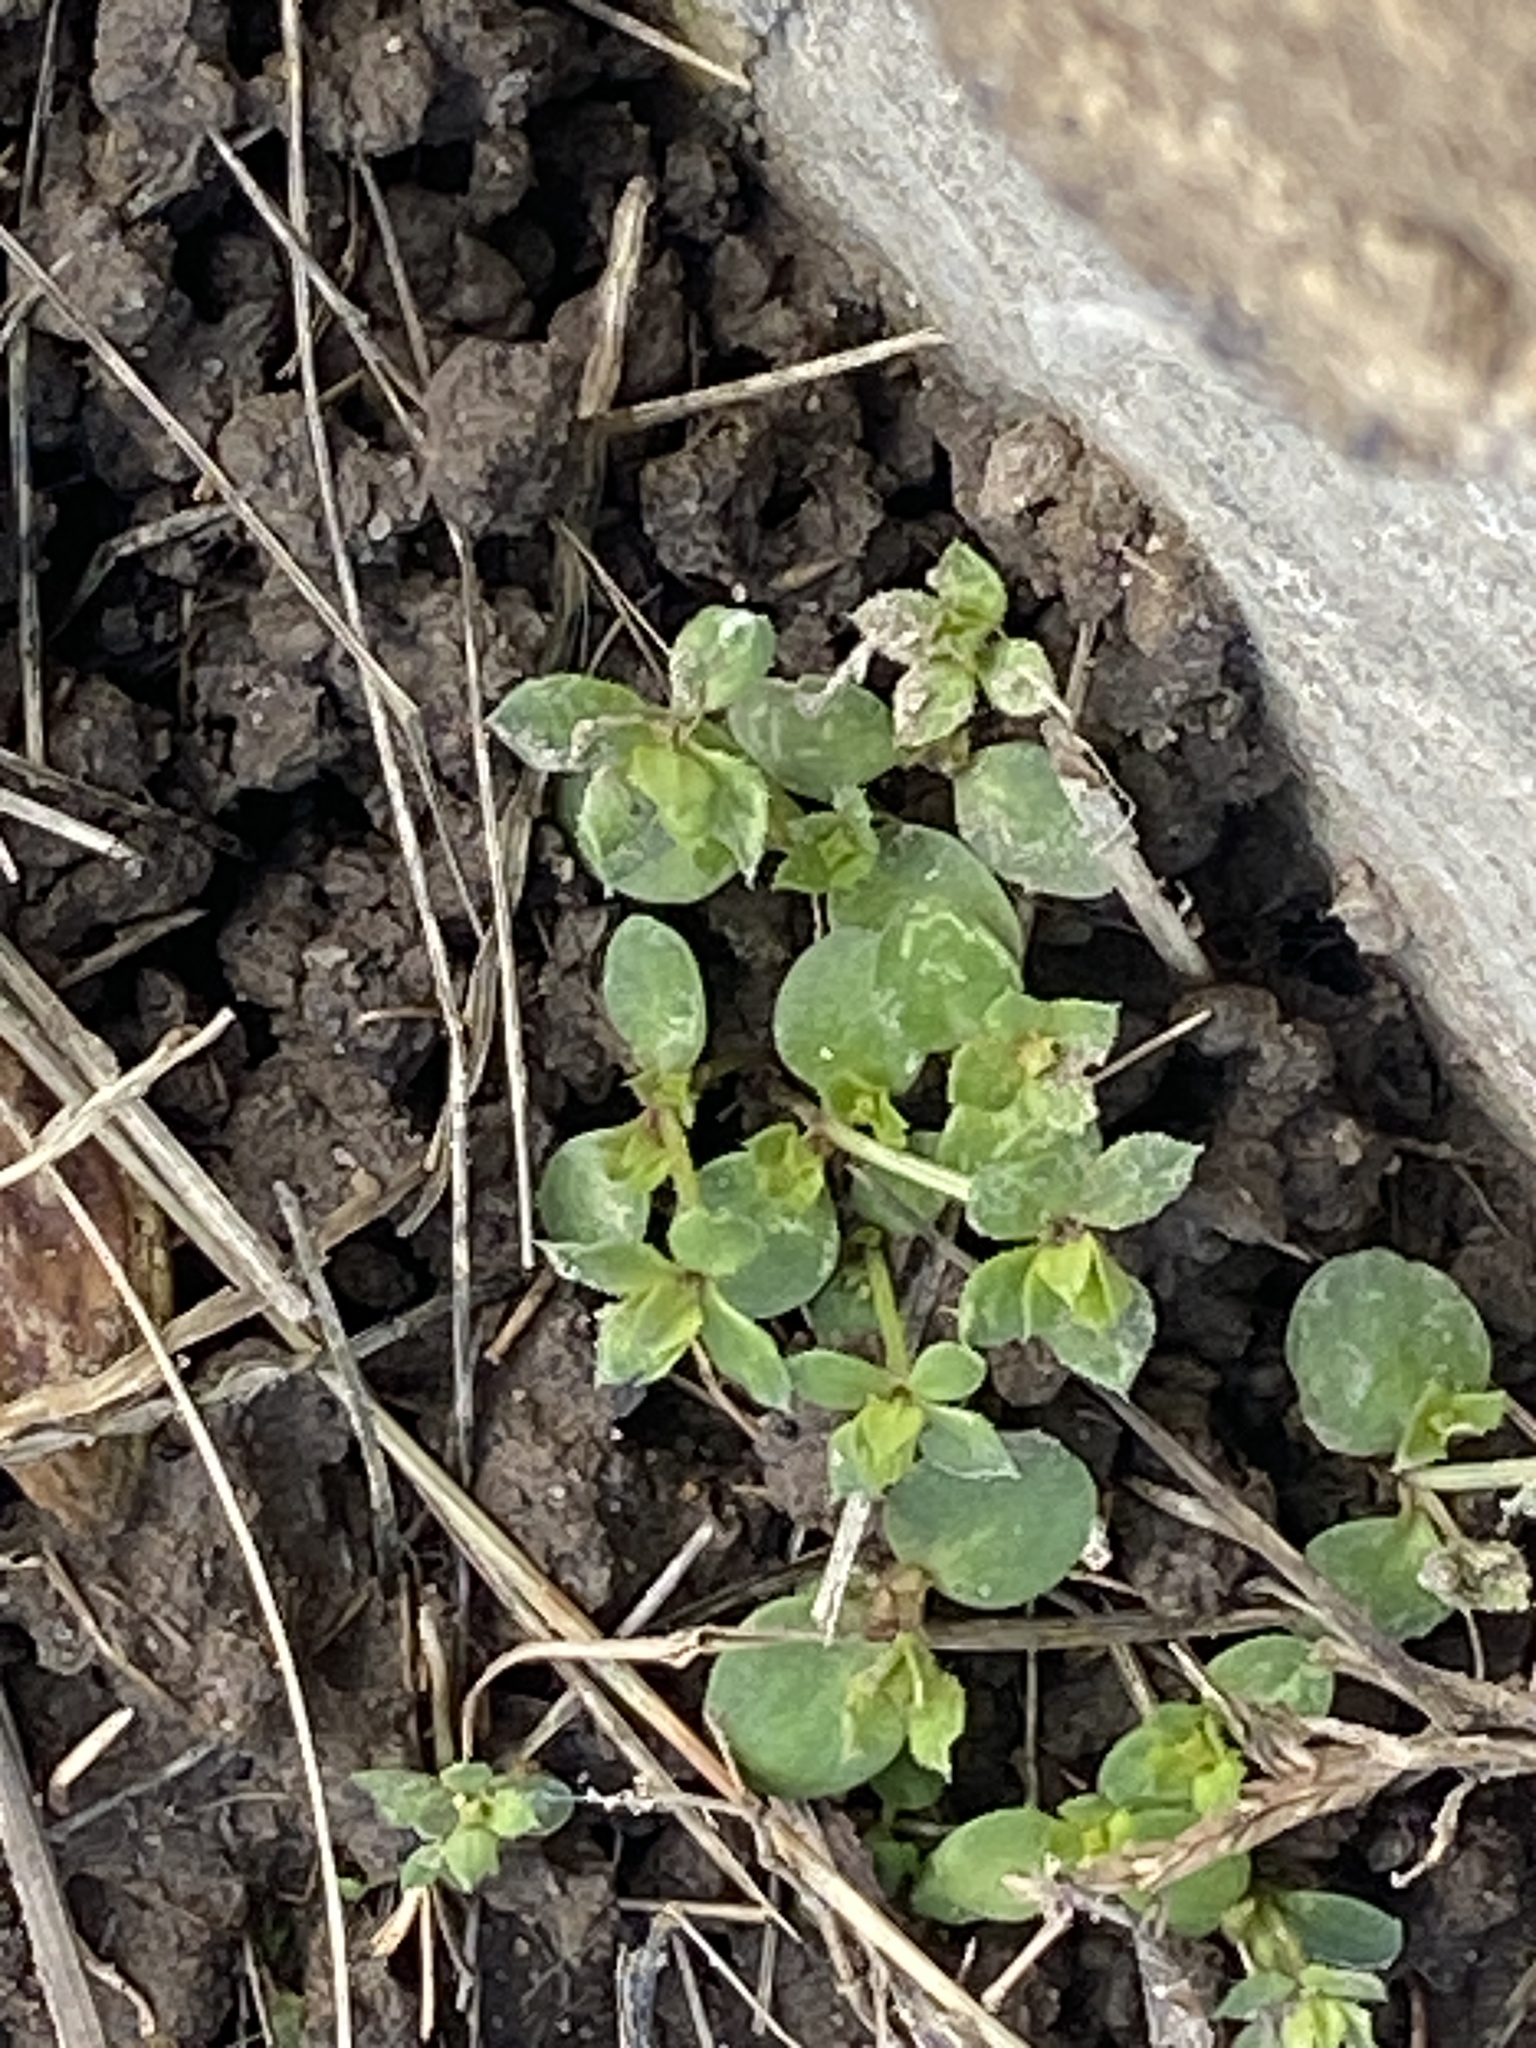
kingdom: Plantae
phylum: Tracheophyta
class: Magnoliopsida
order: Gentianales
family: Rubiaceae
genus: Sherardia
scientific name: Sherardia arvensis
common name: Field madder
